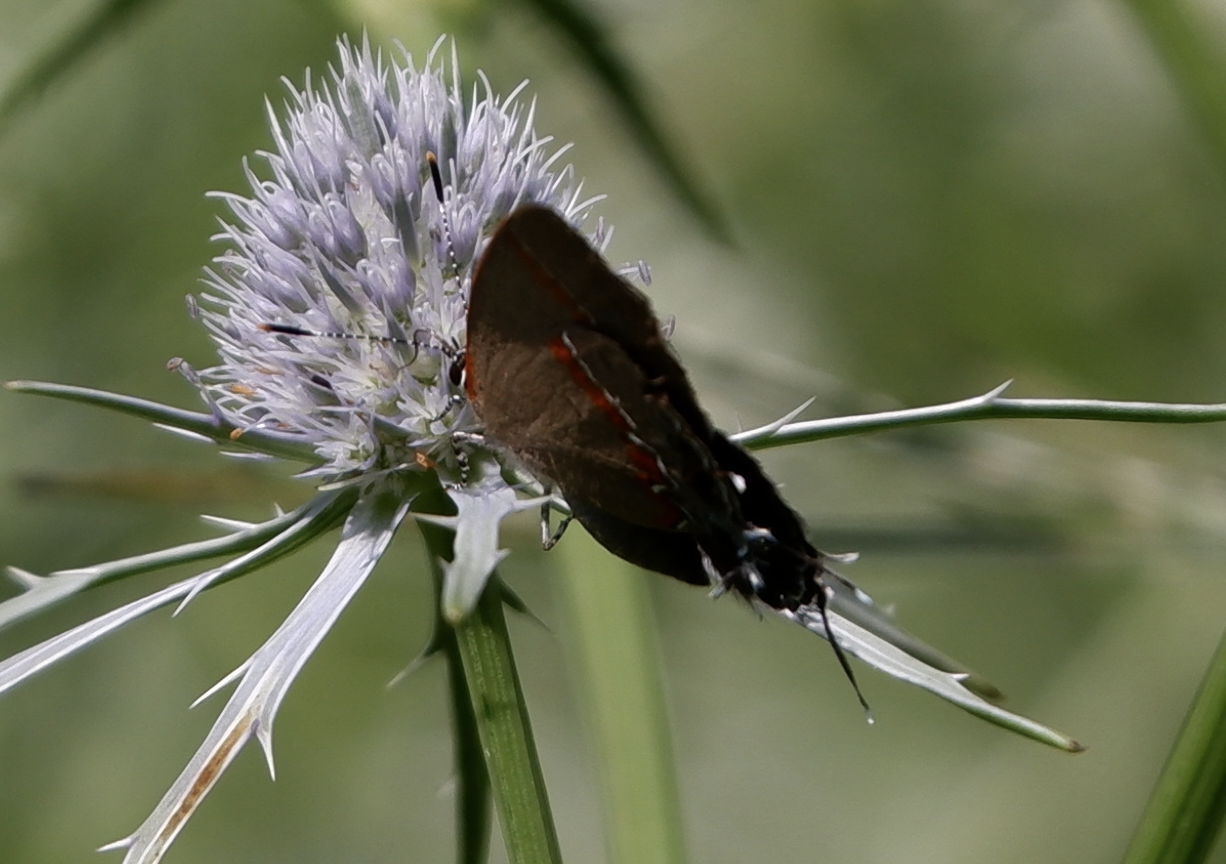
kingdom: Animalia
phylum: Arthropoda
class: Insecta
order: Lepidoptera
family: Lycaenidae
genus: Calycopis
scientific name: Calycopis cecrops
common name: Red-banded hairstreak
